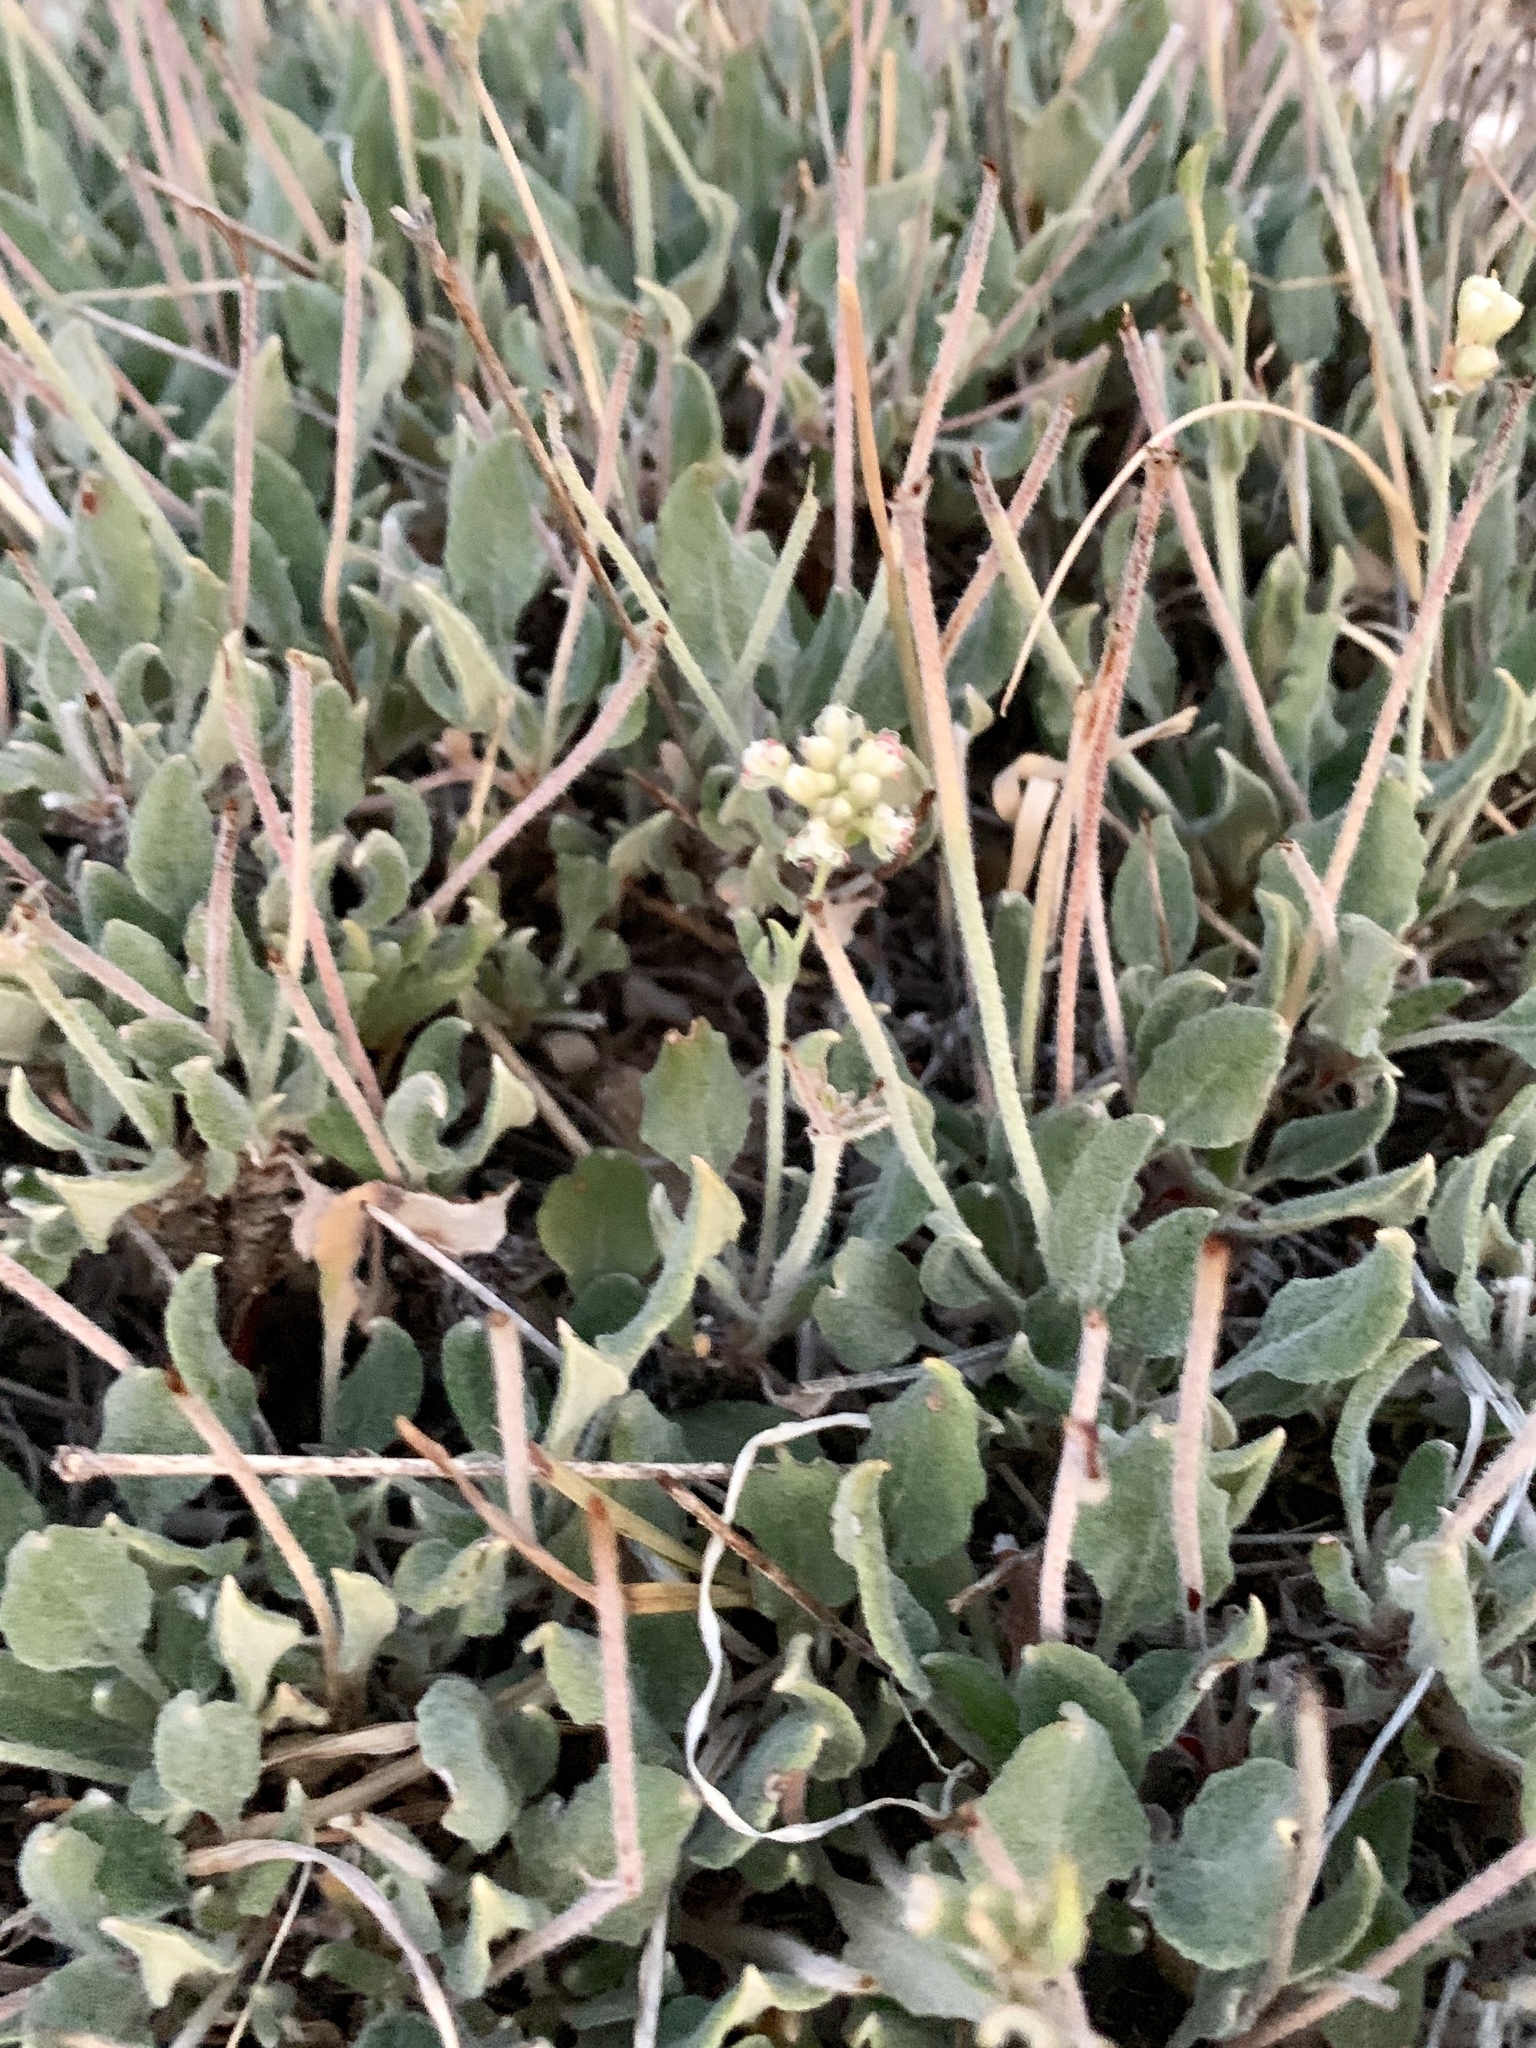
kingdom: Plantae
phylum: Tracheophyta
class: Magnoliopsida
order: Caryophyllales
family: Polygonaceae
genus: Eriogonum
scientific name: Eriogonum jamesii
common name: Antelope-sage
